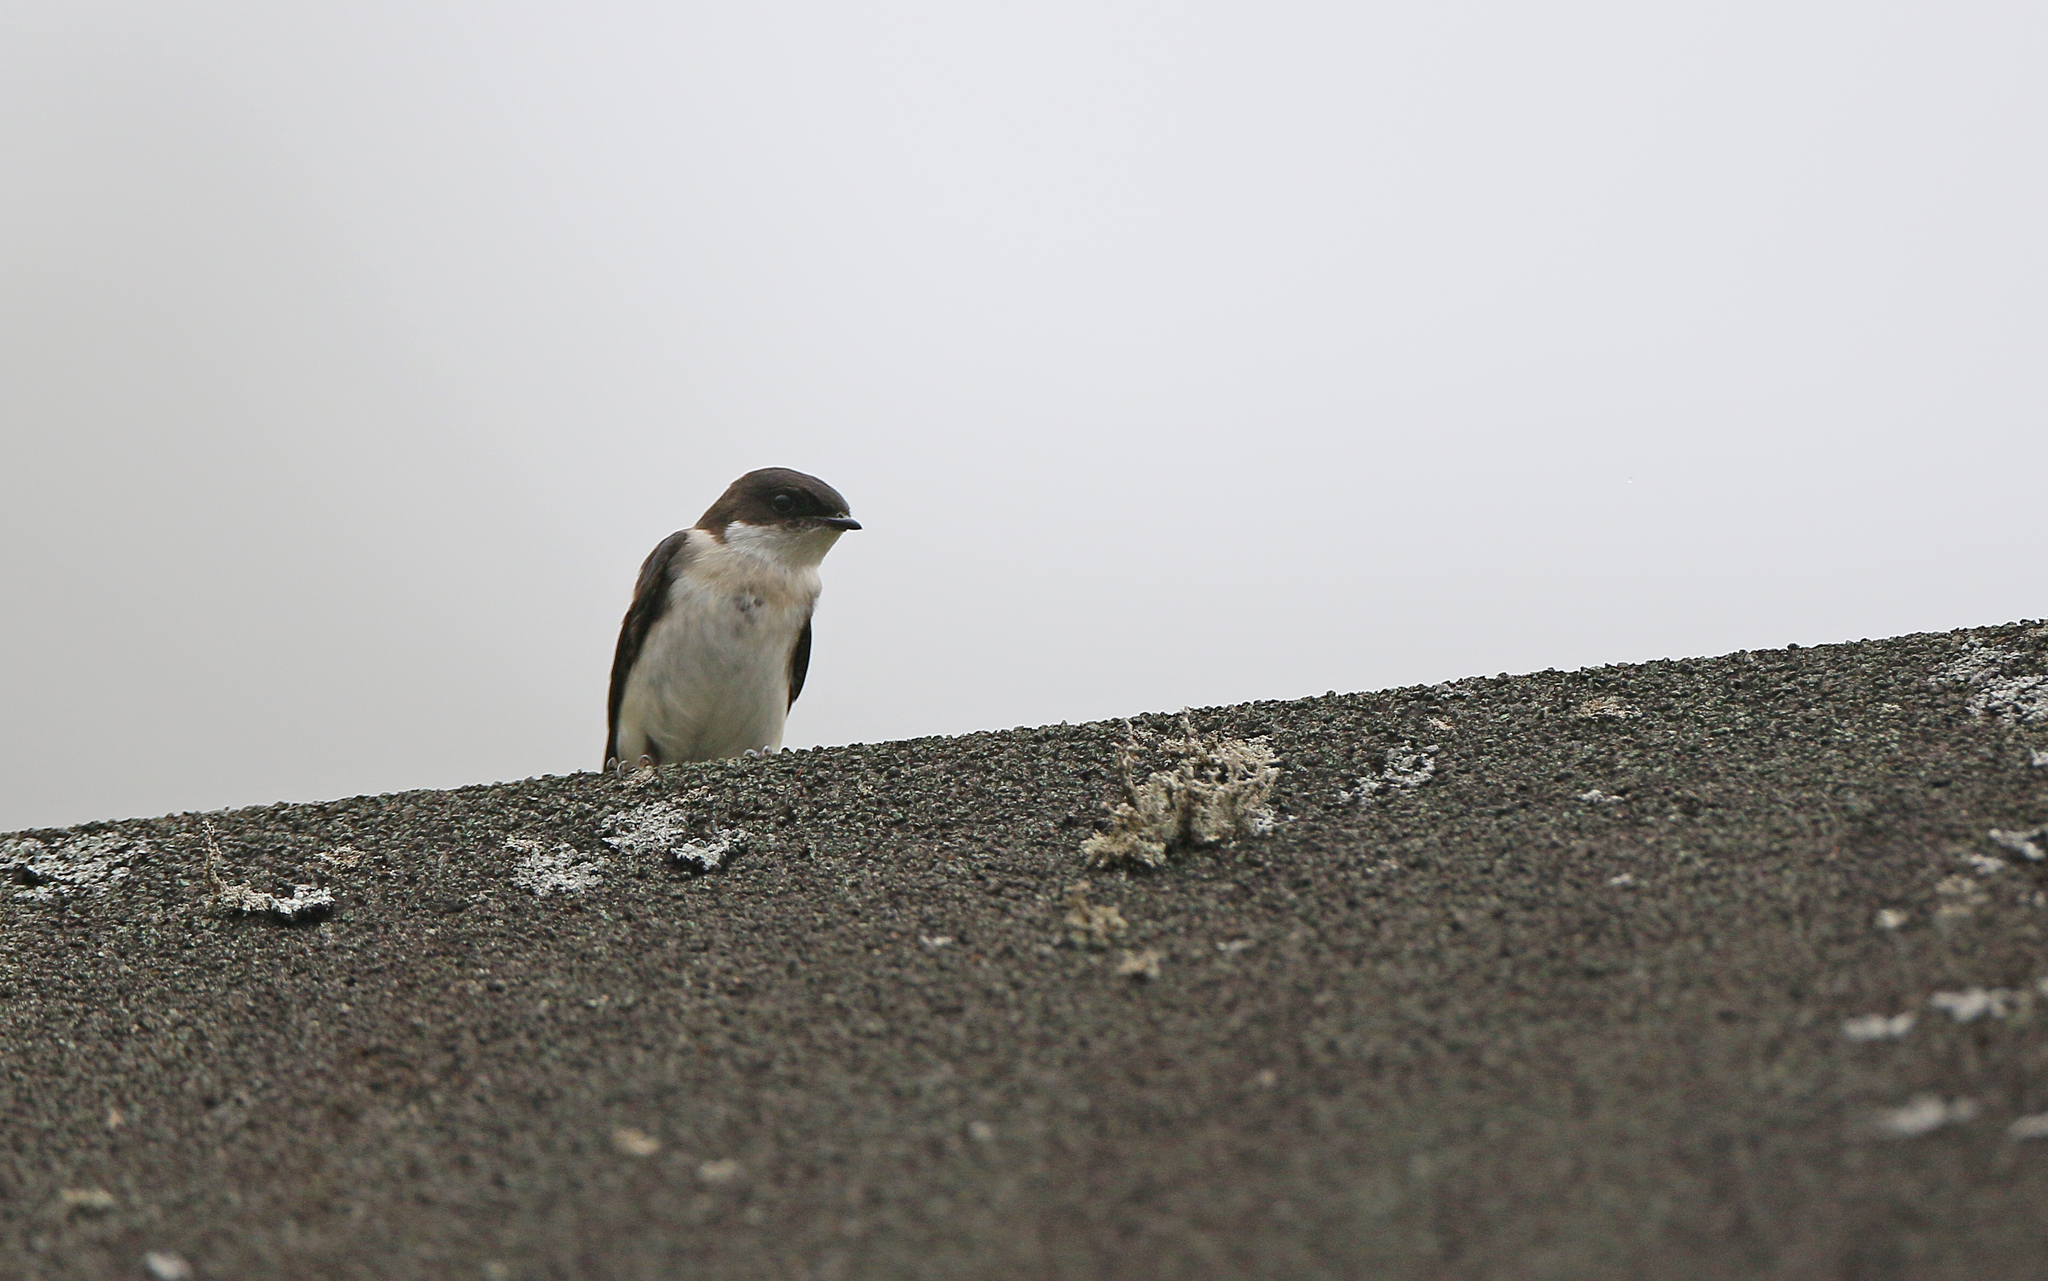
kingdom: Animalia
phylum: Chordata
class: Aves
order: Passeriformes
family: Hirundinidae
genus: Notiochelidon
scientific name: Notiochelidon cyanoleuca
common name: Blue-and-white swallow
